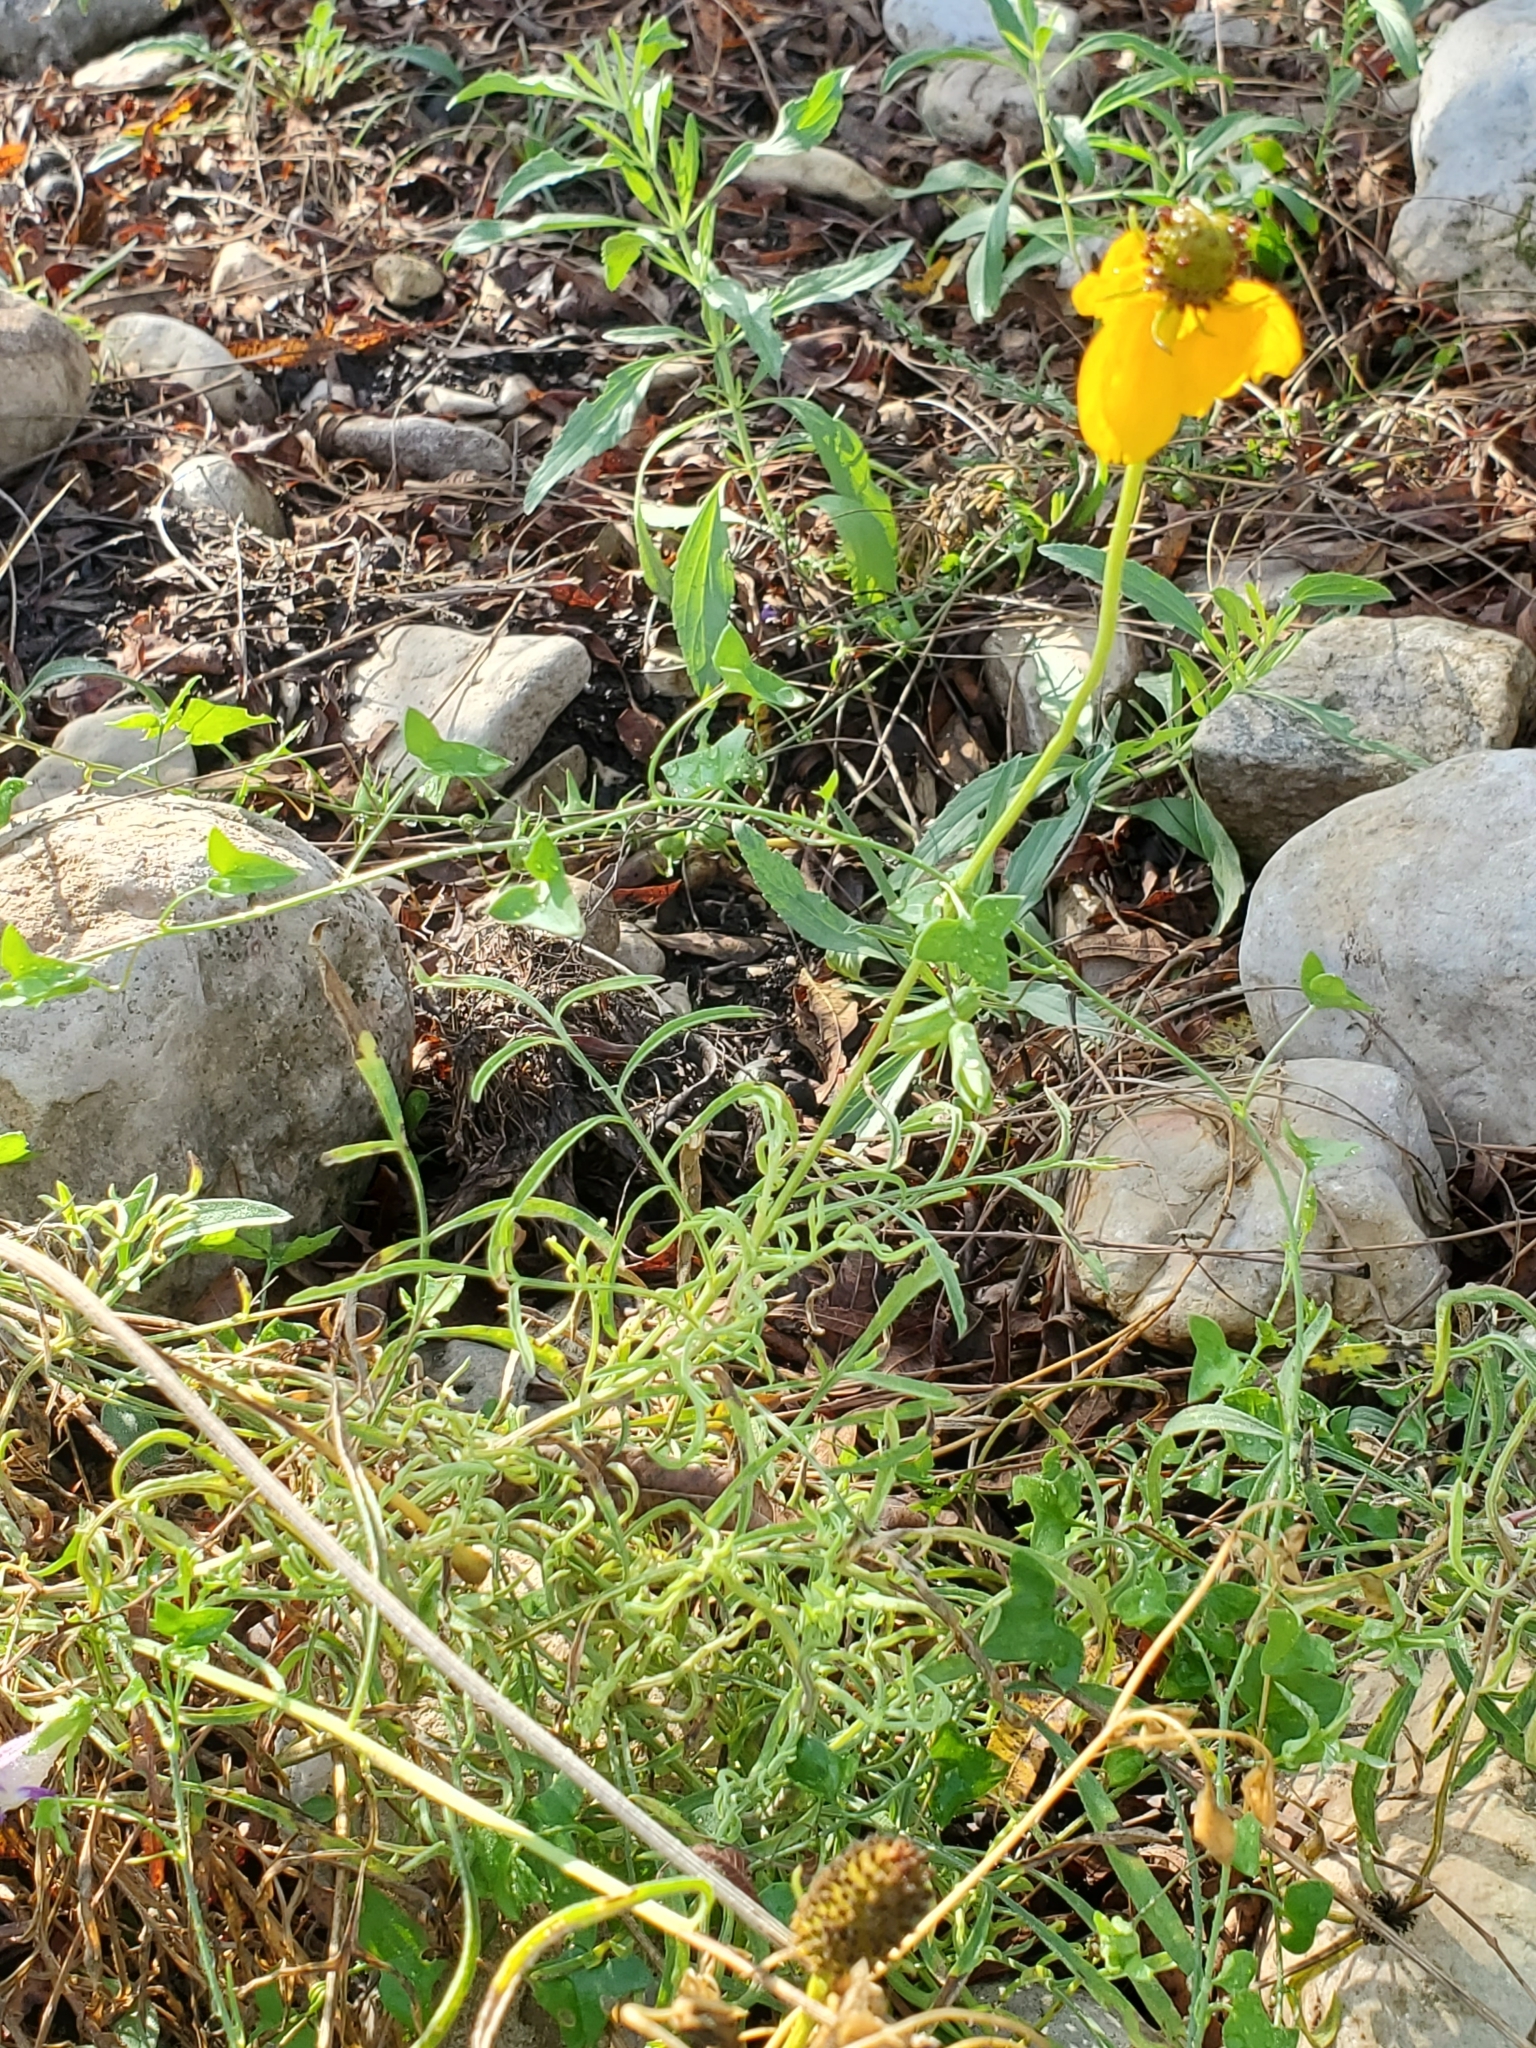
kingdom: Plantae
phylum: Tracheophyta
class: Magnoliopsida
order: Asterales
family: Asteraceae
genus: Ratibida
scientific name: Ratibida columnifera
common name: Prairie coneflower
